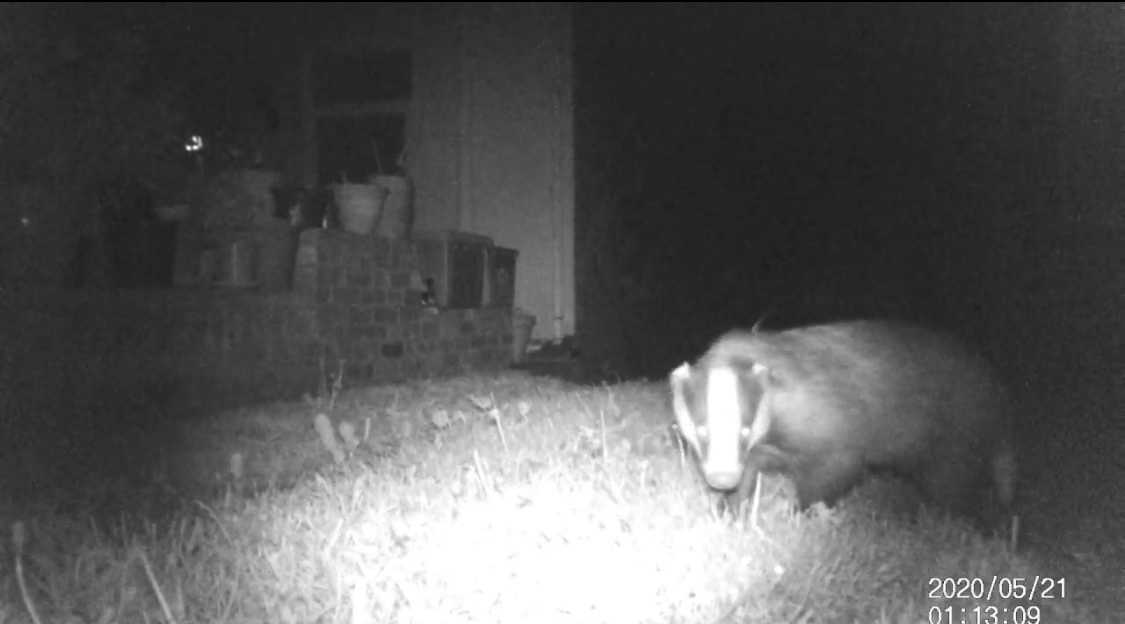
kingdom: Animalia
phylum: Chordata
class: Mammalia
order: Carnivora
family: Mustelidae
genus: Meles
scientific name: Meles meles
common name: Eurasian badger
